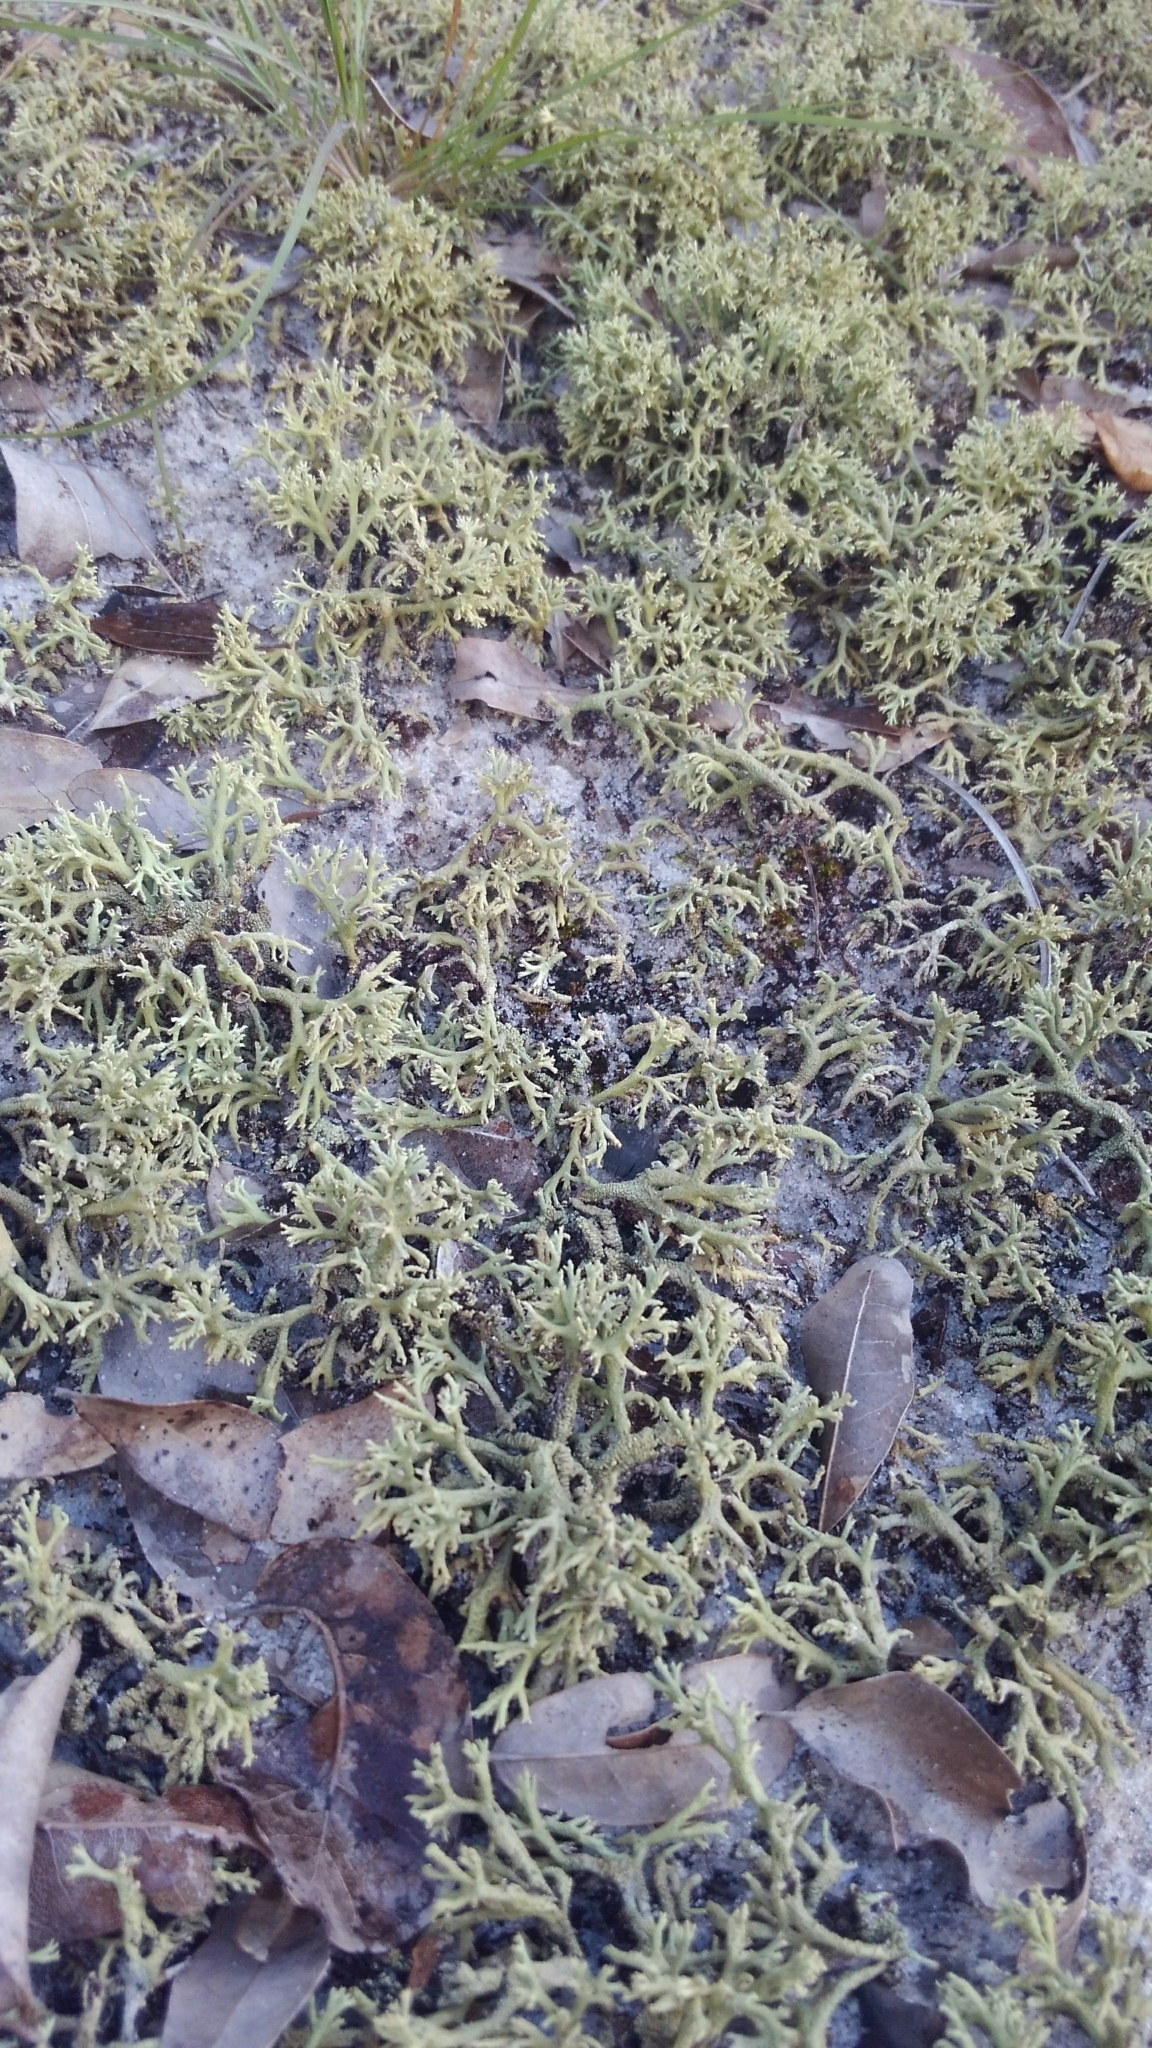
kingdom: Fungi
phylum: Ascomycota
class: Lecanoromycetes
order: Lecanorales
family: Cladoniaceae
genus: Cladonia
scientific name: Cladonia pachycladodes
